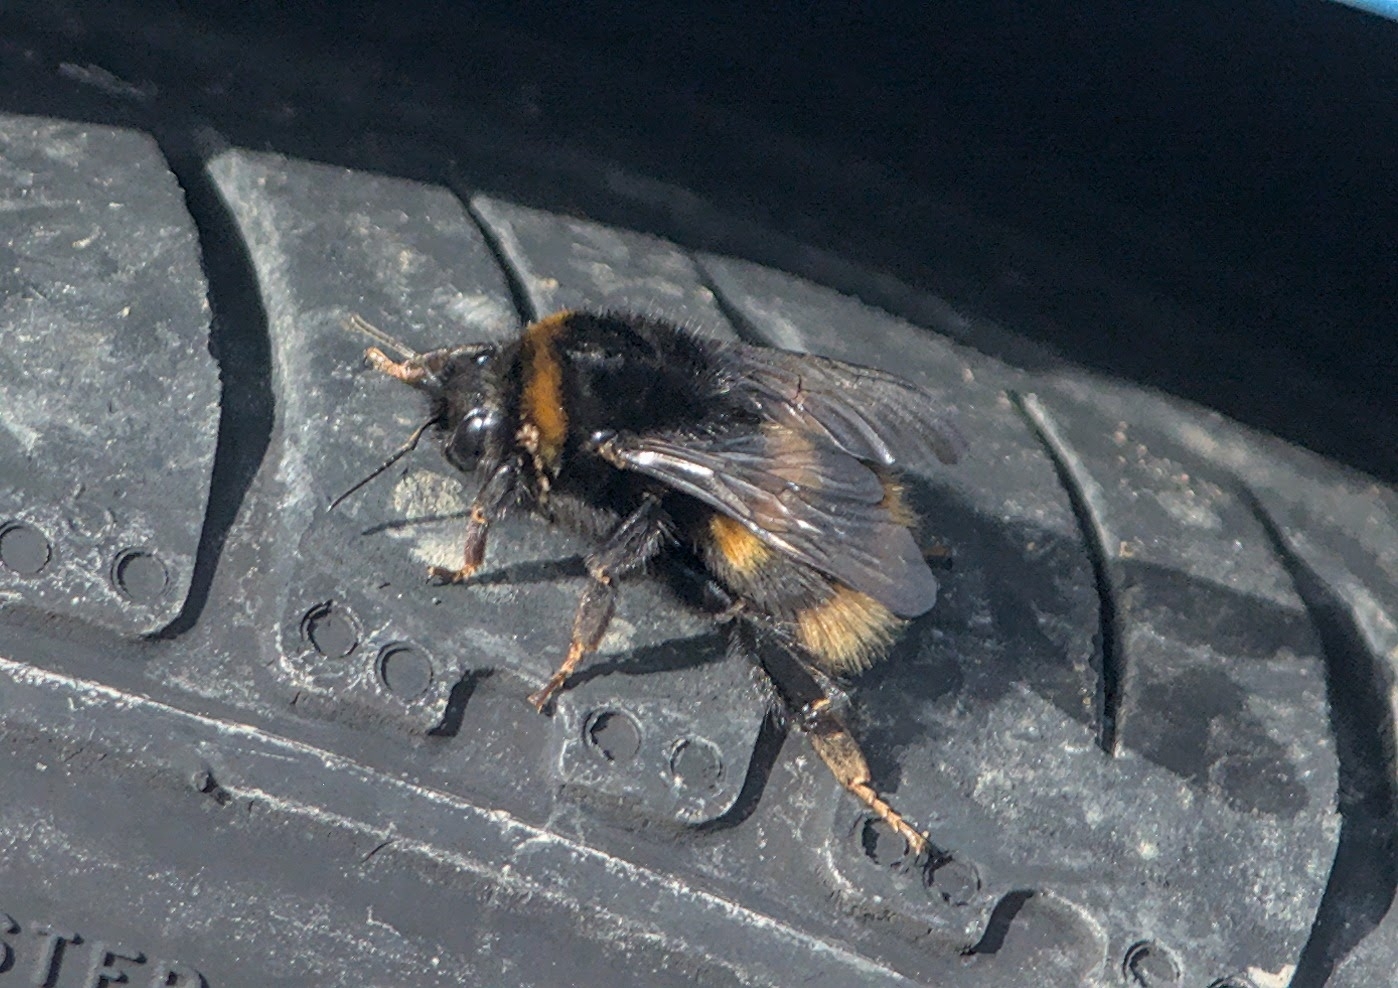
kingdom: Animalia
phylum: Arthropoda
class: Insecta
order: Hymenoptera
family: Apidae
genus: Bombus
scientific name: Bombus terrestris
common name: Buff-tailed bumblebee
